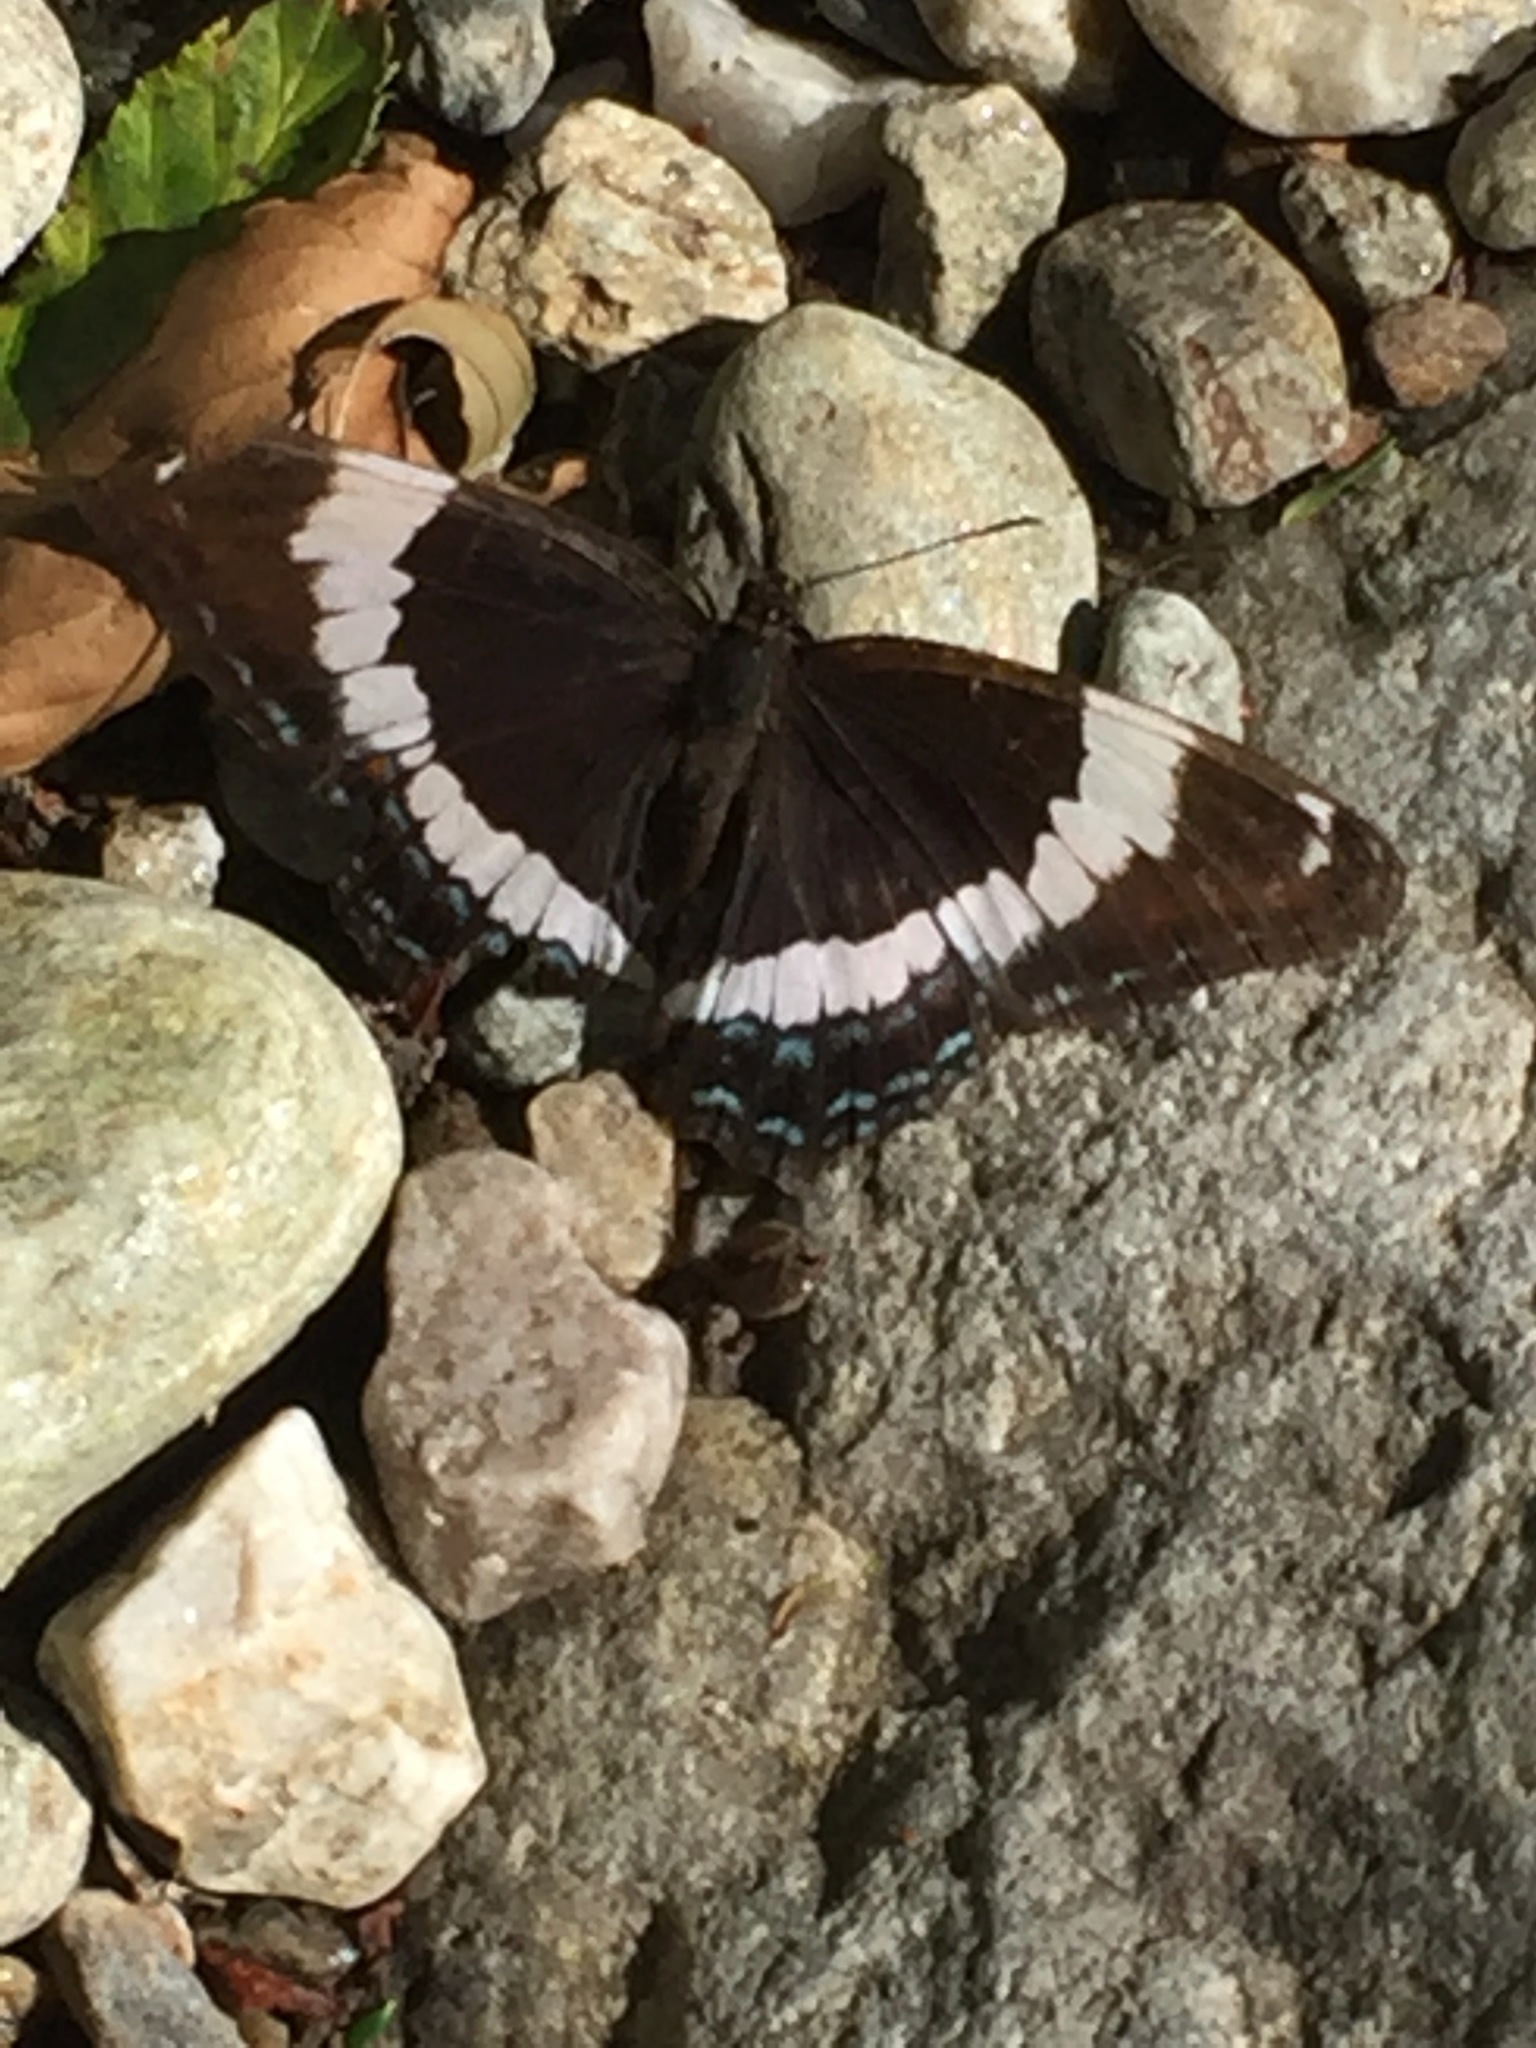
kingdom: Animalia
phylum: Arthropoda
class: Insecta
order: Lepidoptera
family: Nymphalidae
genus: Limenitis
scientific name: Limenitis arthemis
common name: Red-spotted admiral
